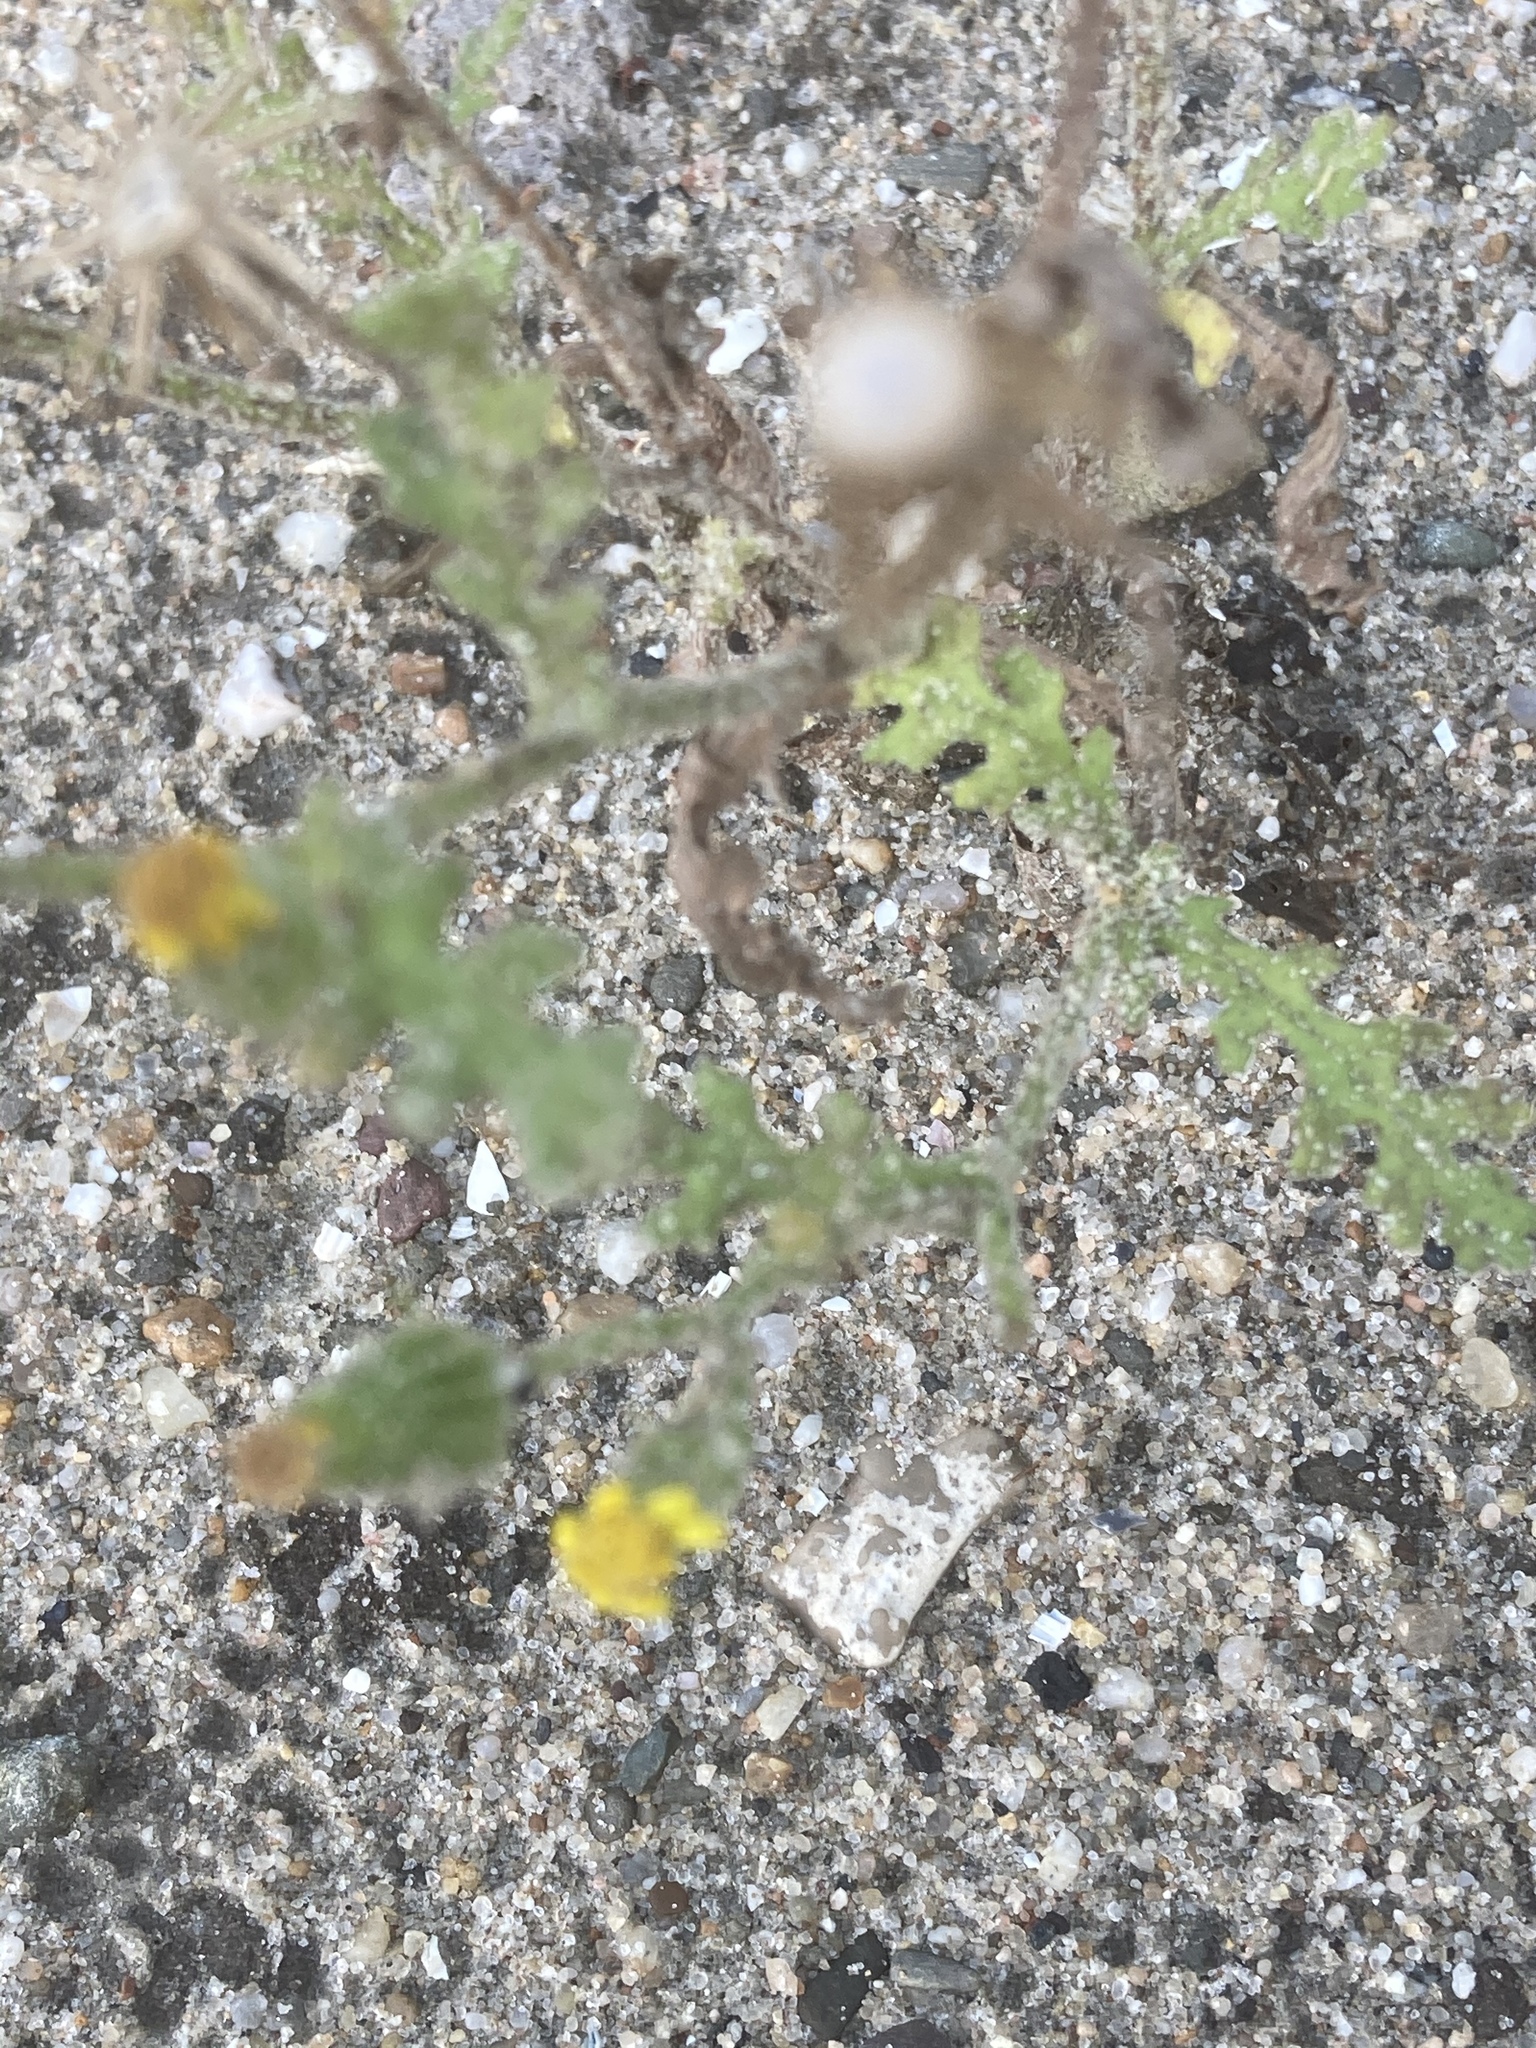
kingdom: Plantae
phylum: Tracheophyta
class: Magnoliopsida
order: Asterales
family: Asteraceae
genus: Senecio
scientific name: Senecio viscosus
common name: Sticky groundsel
